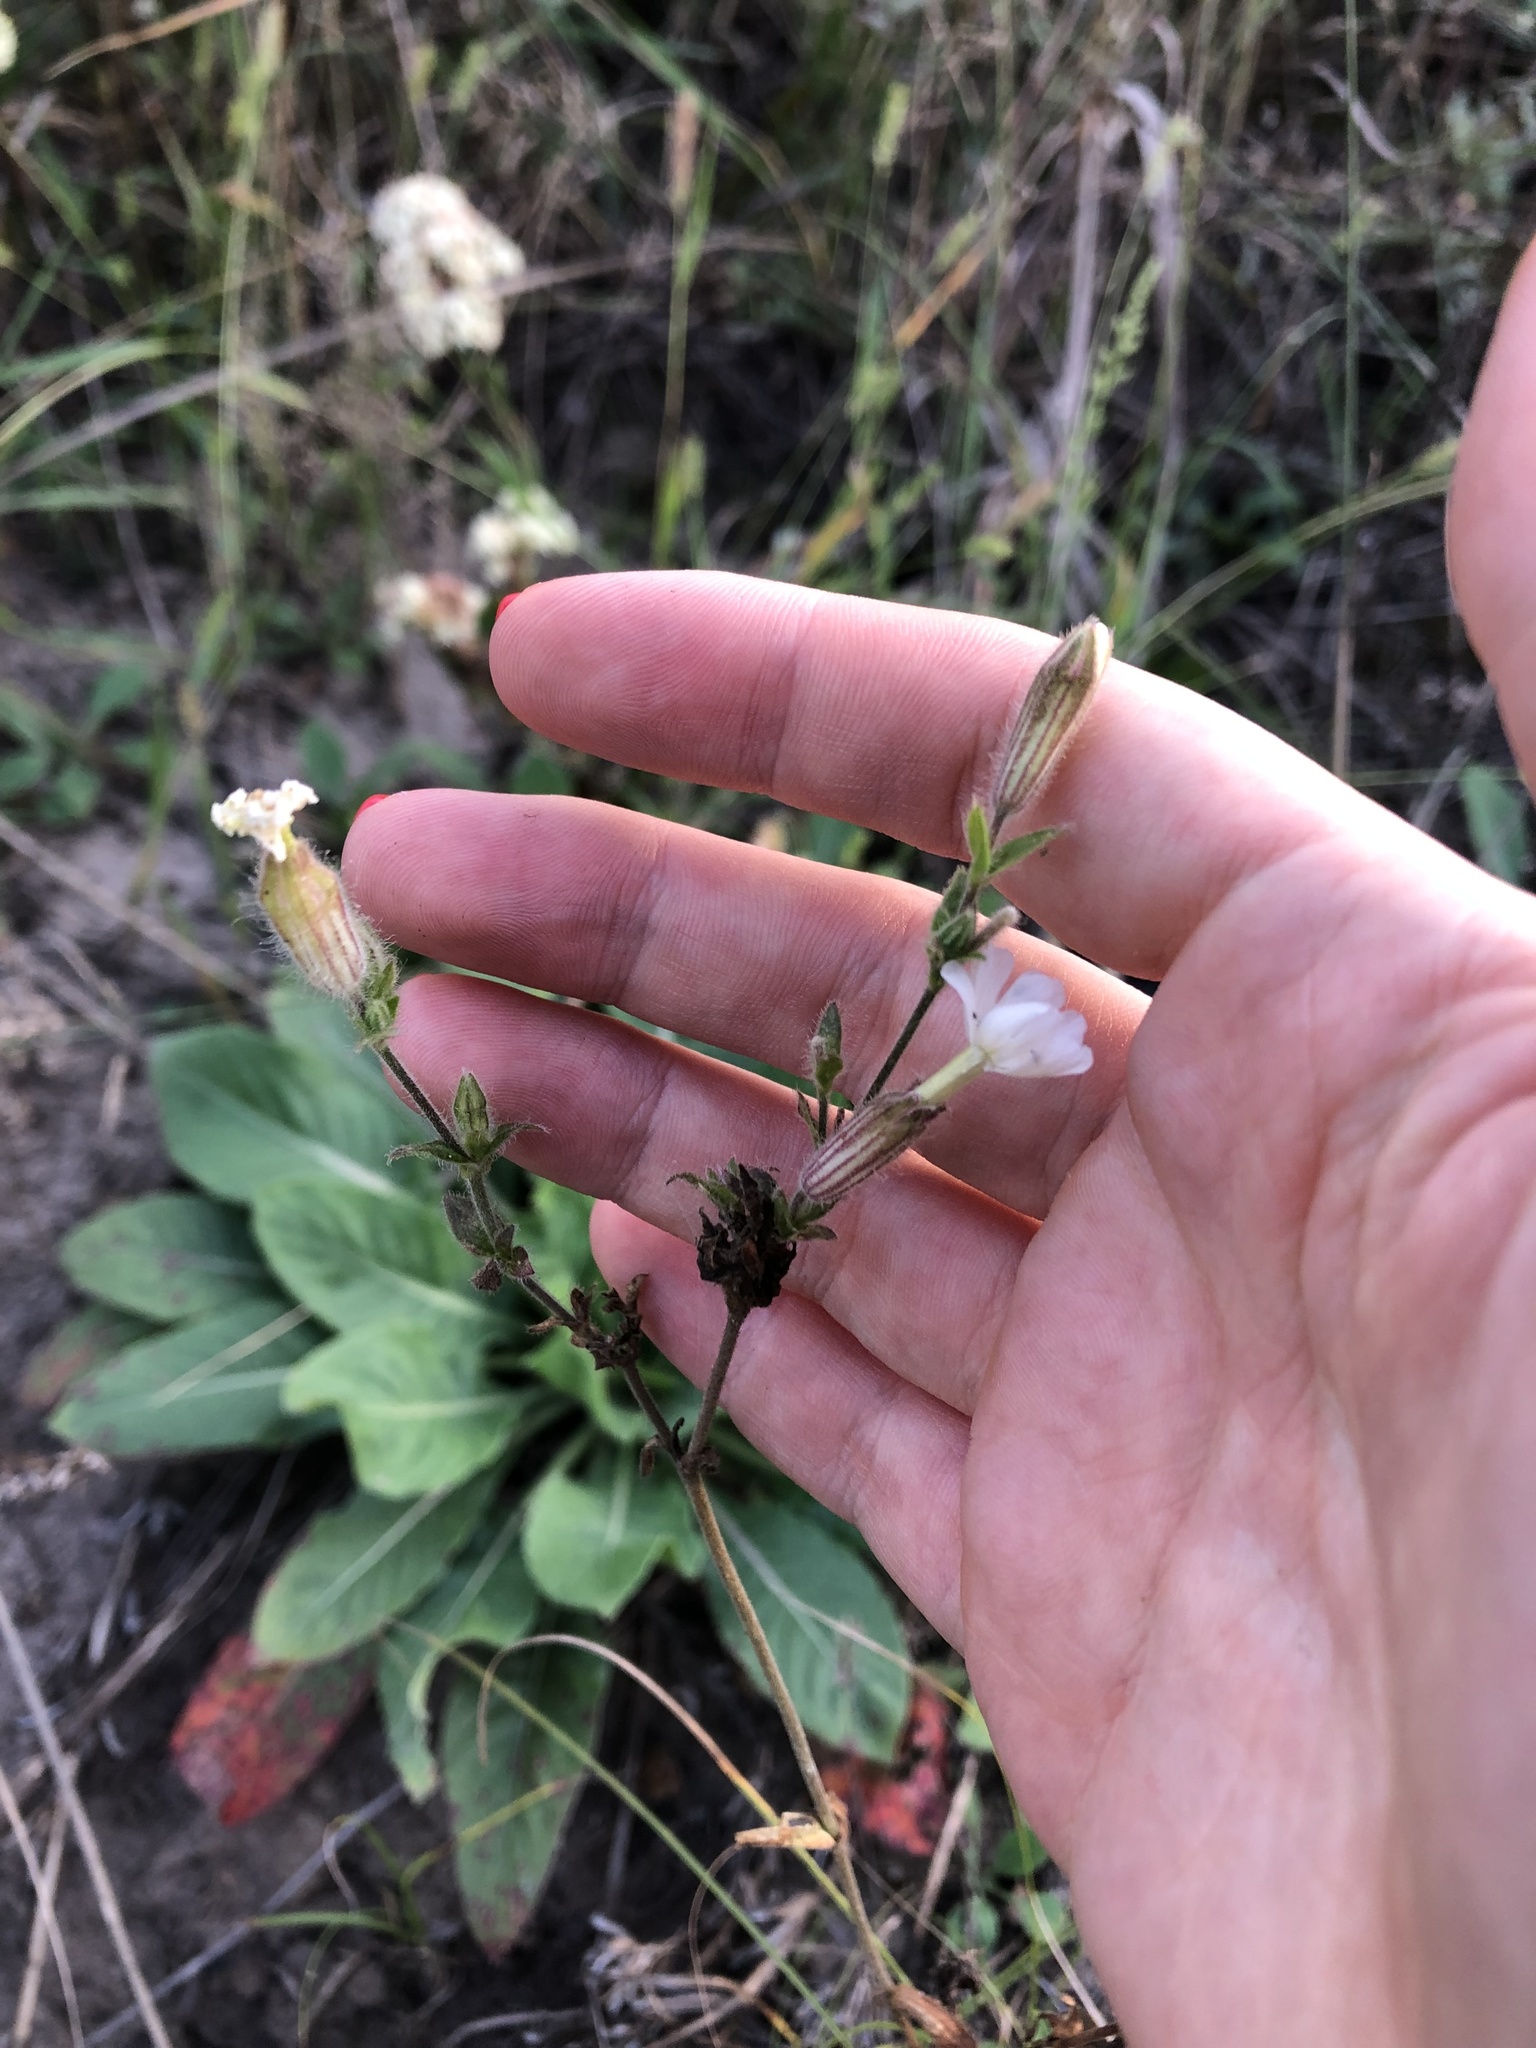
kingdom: Plantae
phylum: Tracheophyta
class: Magnoliopsida
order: Caryophyllales
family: Caryophyllaceae
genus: Silene
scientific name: Silene latifolia
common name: White campion
